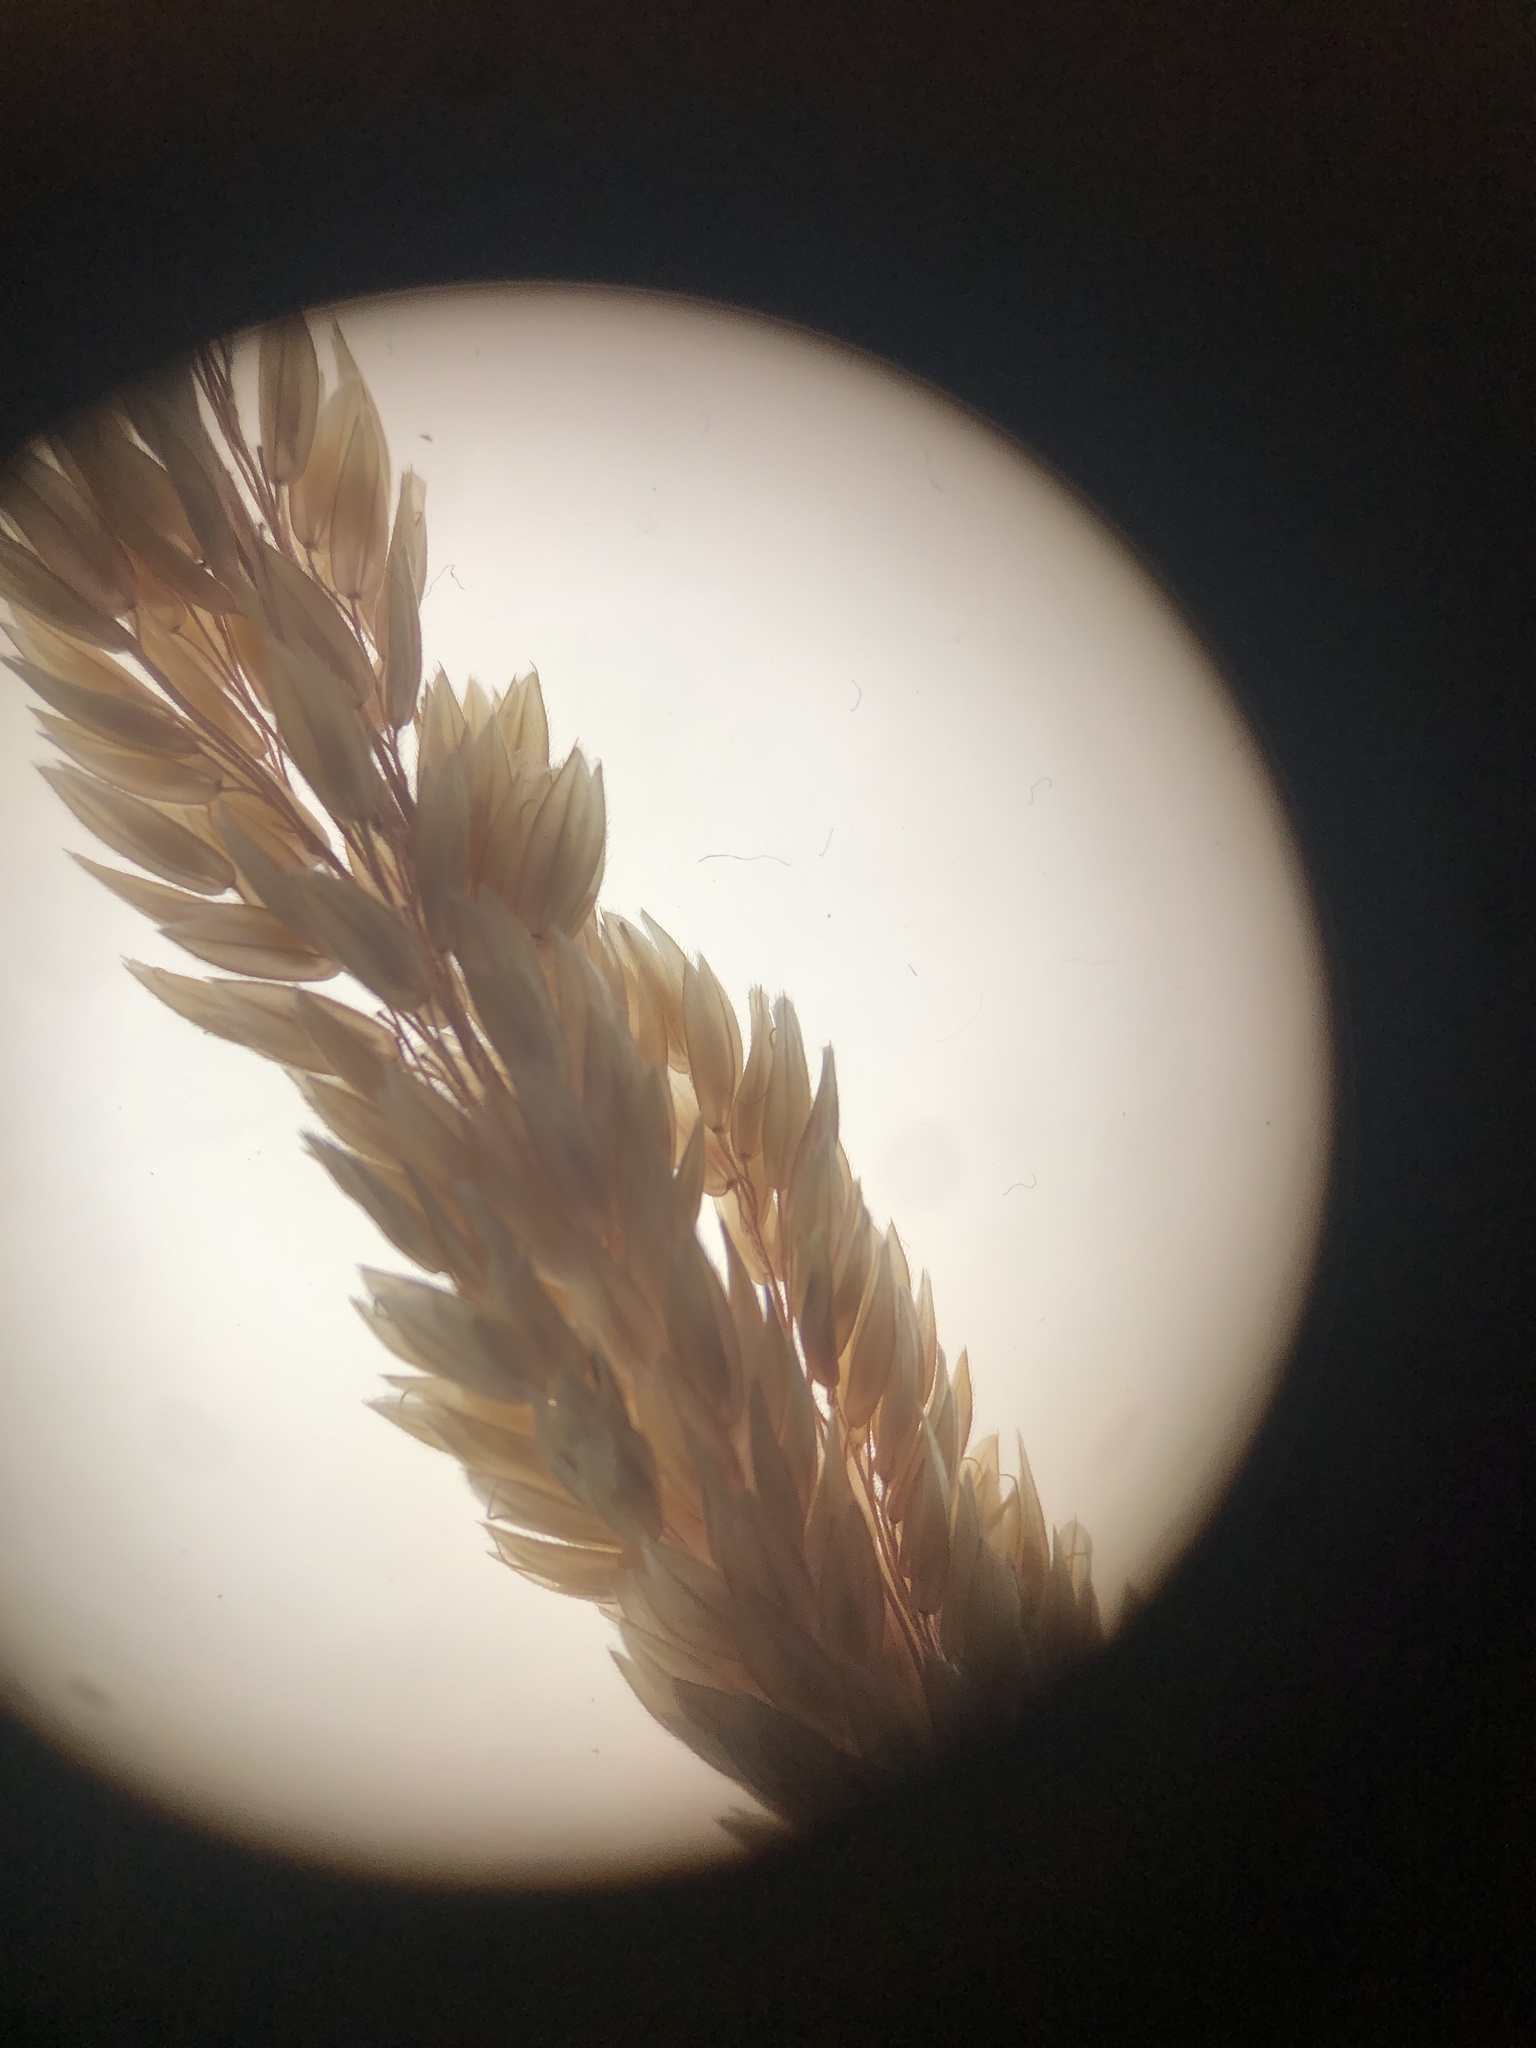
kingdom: Plantae
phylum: Tracheophyta
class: Liliopsida
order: Poales
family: Poaceae
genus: Holcus
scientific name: Holcus lanatus
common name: Yorkshire-fog
